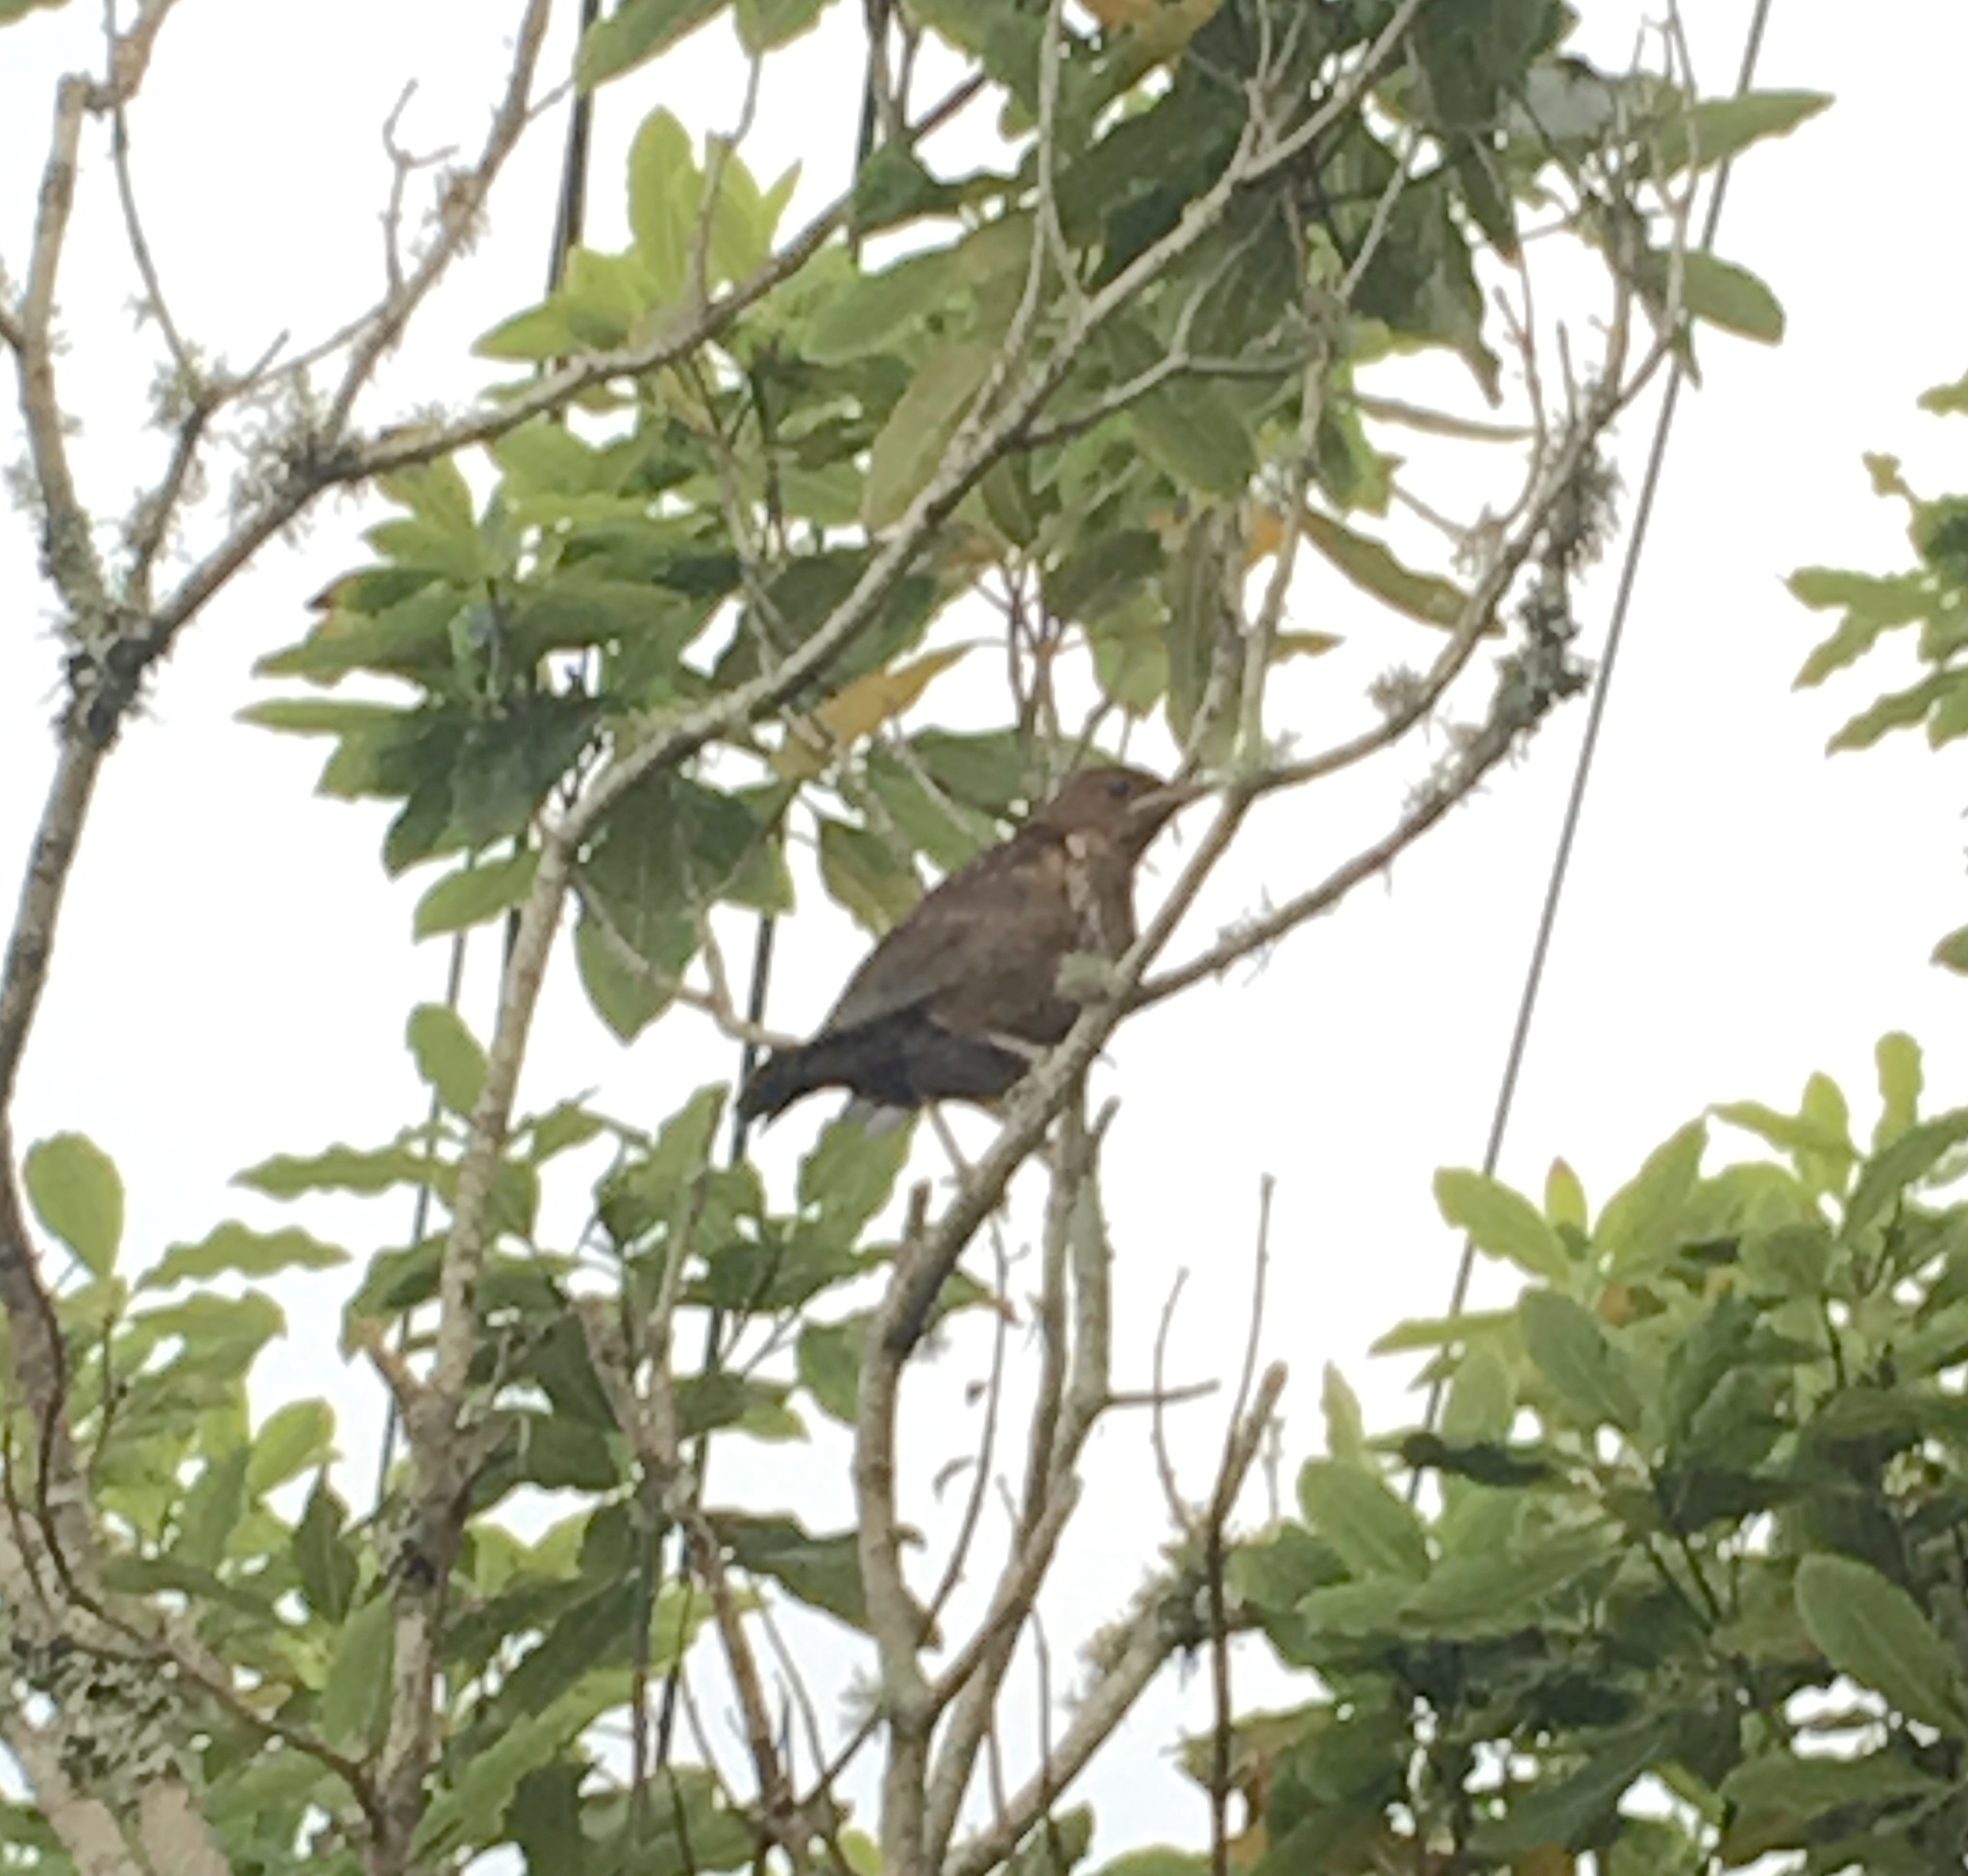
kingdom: Animalia
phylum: Chordata
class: Aves
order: Passeriformes
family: Turdidae
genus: Turdus
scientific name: Turdus merula
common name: Common blackbird
